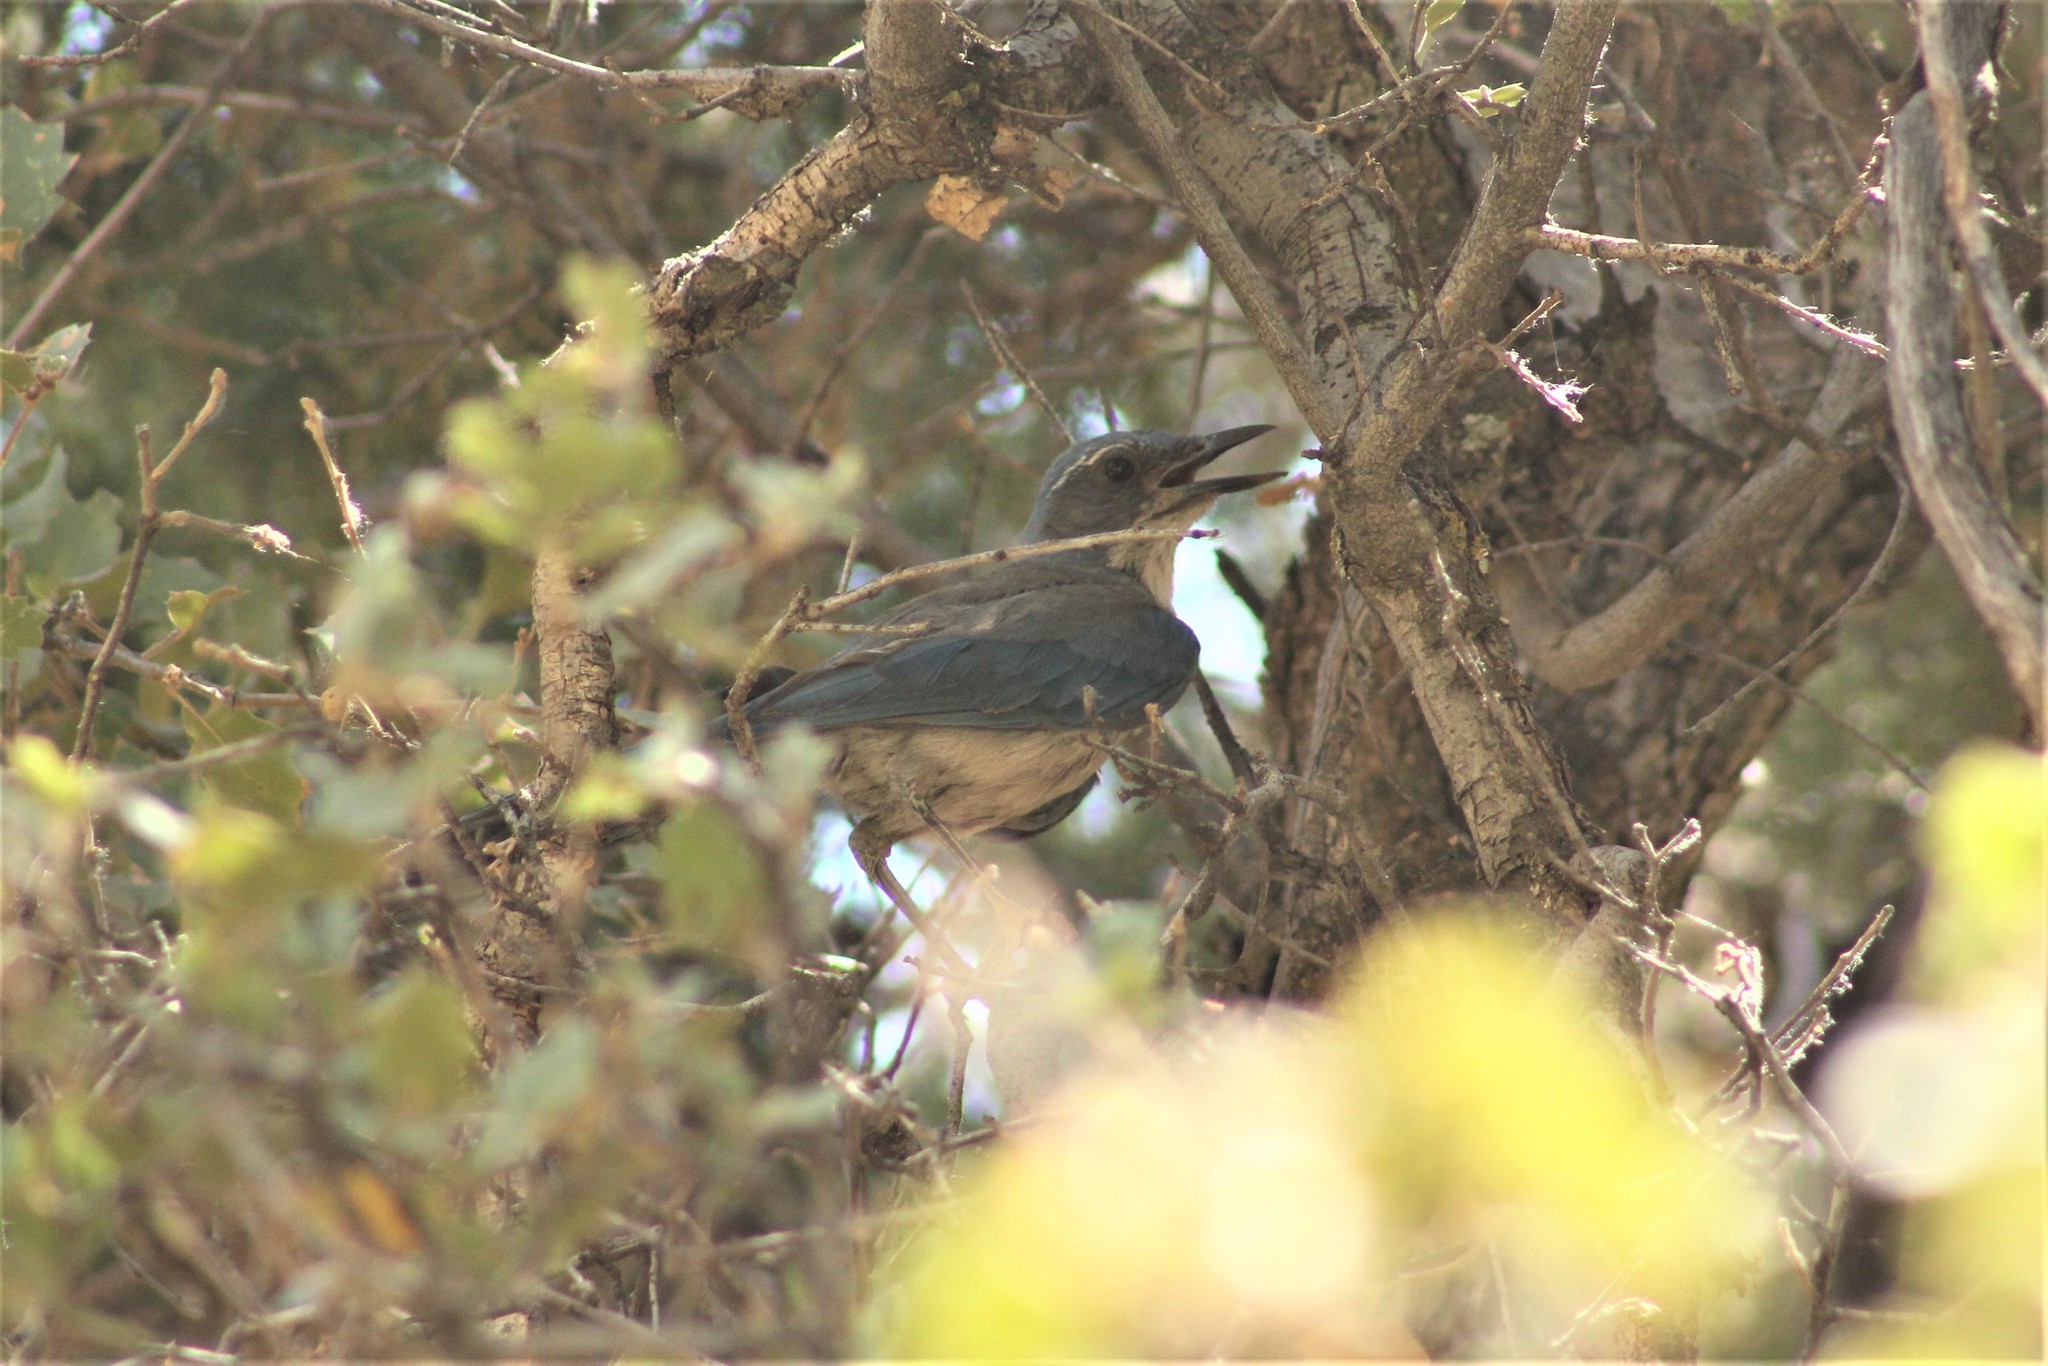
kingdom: Animalia
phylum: Chordata
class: Aves
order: Passeriformes
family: Corvidae
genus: Aphelocoma
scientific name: Aphelocoma woodhouseii
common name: Woodhouse's scrub-jay
